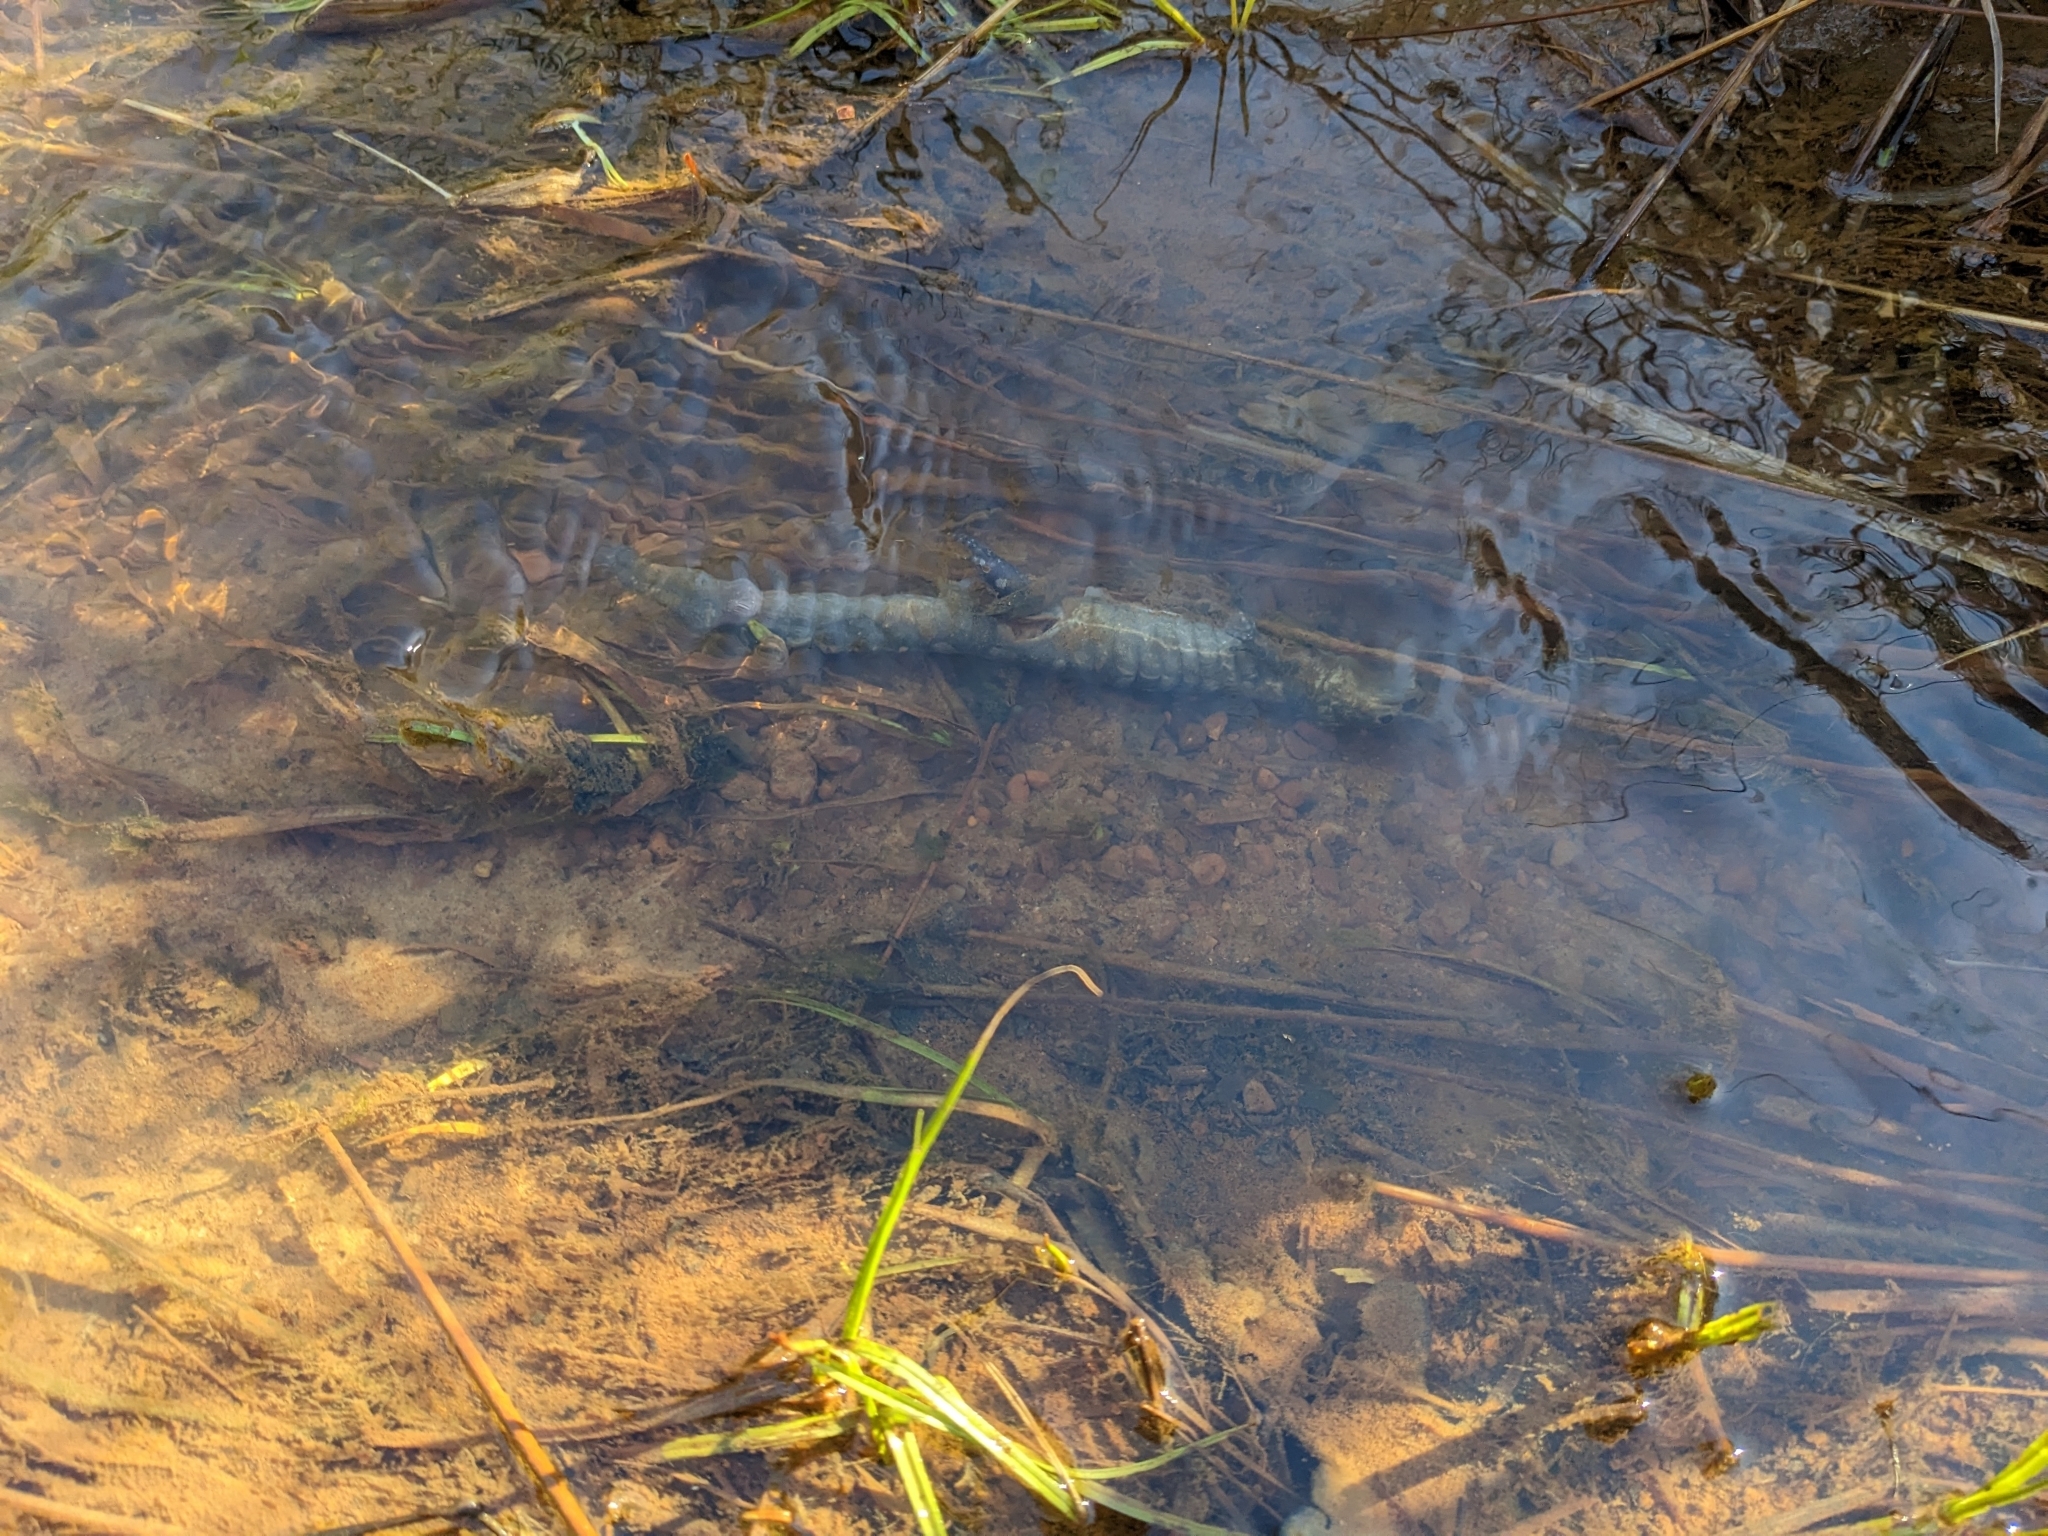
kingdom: Animalia
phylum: Chordata
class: Amphibia
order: Caudata
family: Ambystomatidae
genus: Ambystoma
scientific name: Ambystoma maculatum
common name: Spotted salamander
